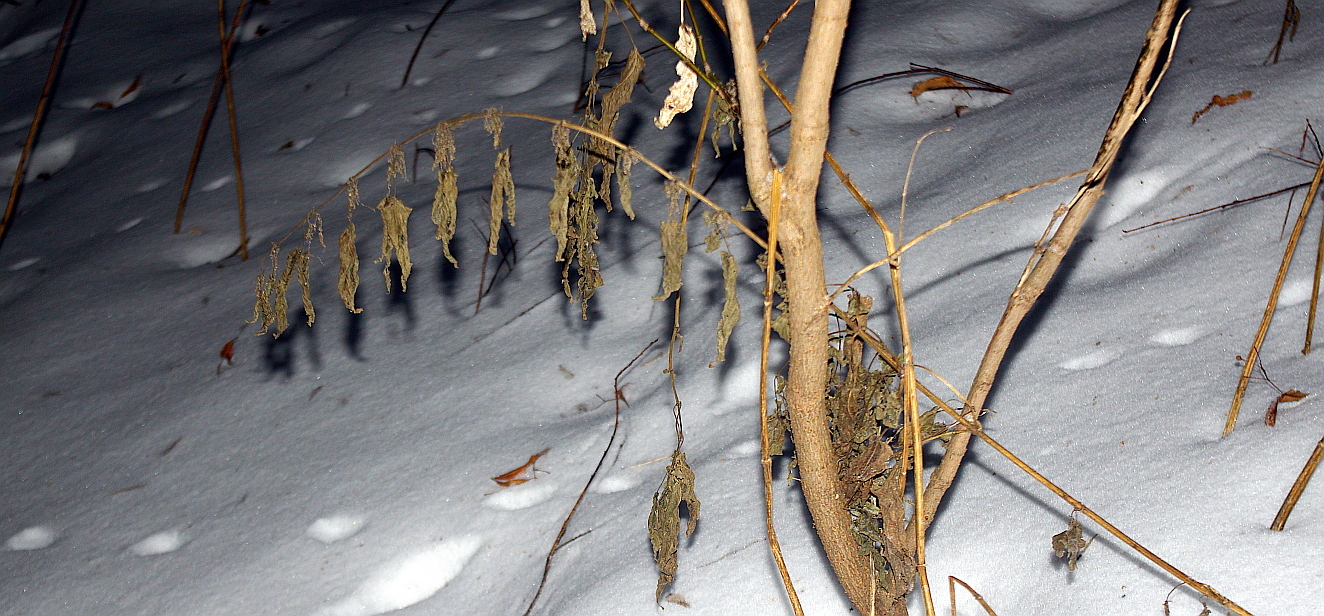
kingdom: Plantae
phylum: Tracheophyta
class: Magnoliopsida
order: Rosales
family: Urticaceae
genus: Urtica
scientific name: Urtica dioica
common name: Common nettle
